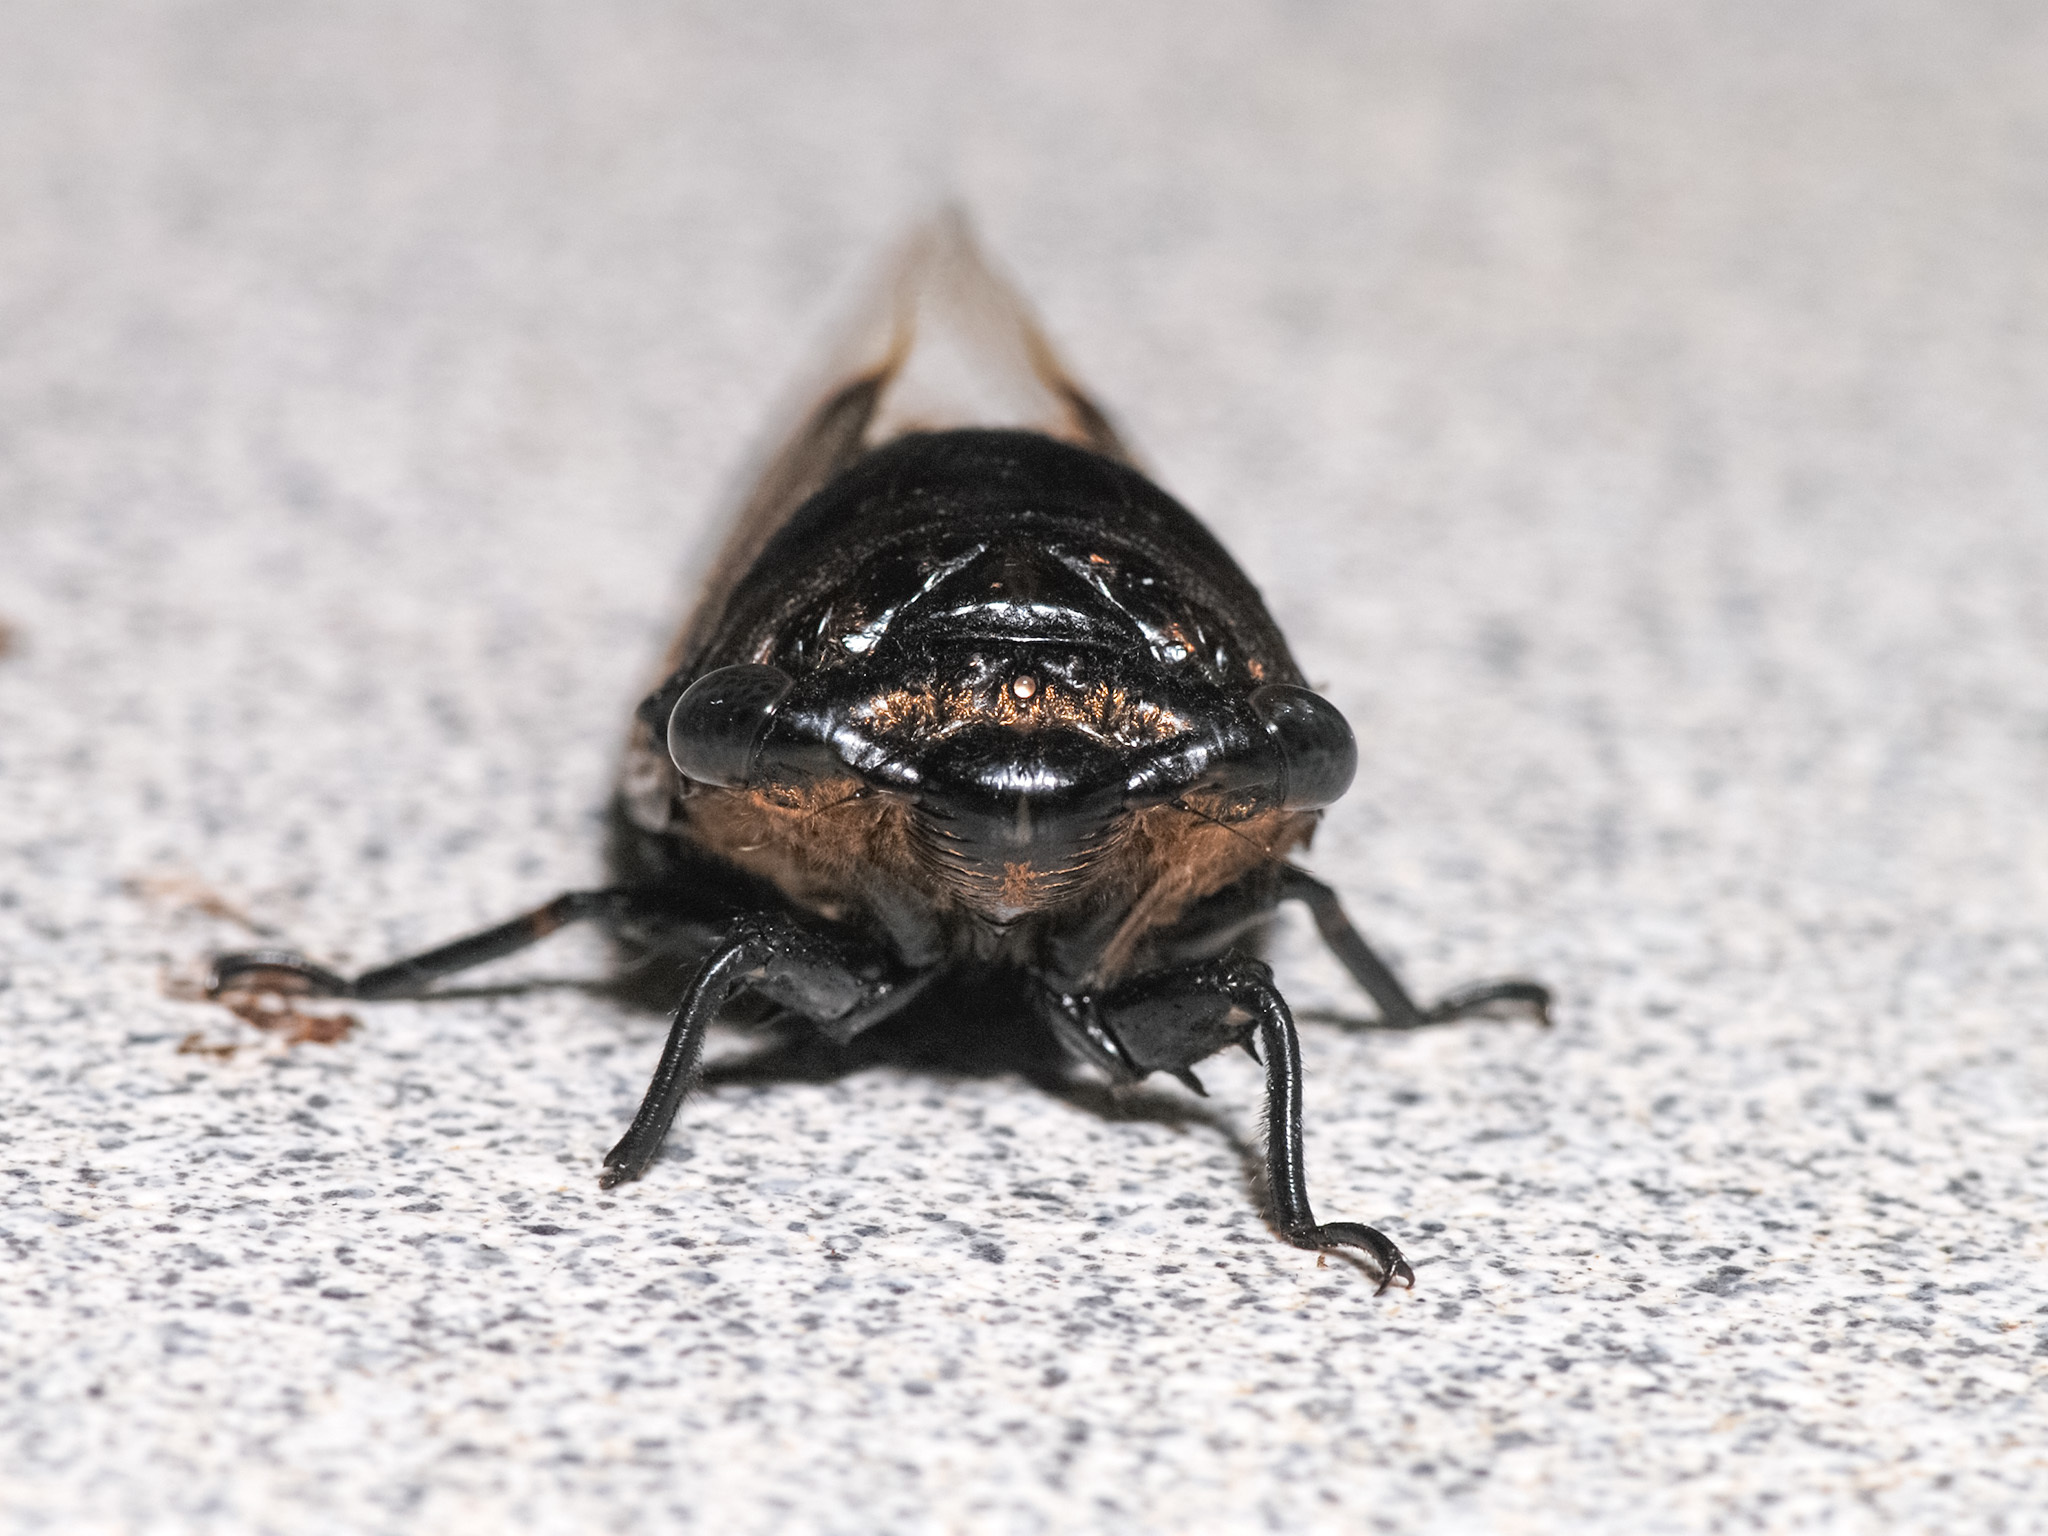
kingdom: Animalia
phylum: Arthropoda
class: Insecta
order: Hemiptera
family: Cicadidae
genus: Cryptotympana
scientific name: Cryptotympana aquila
